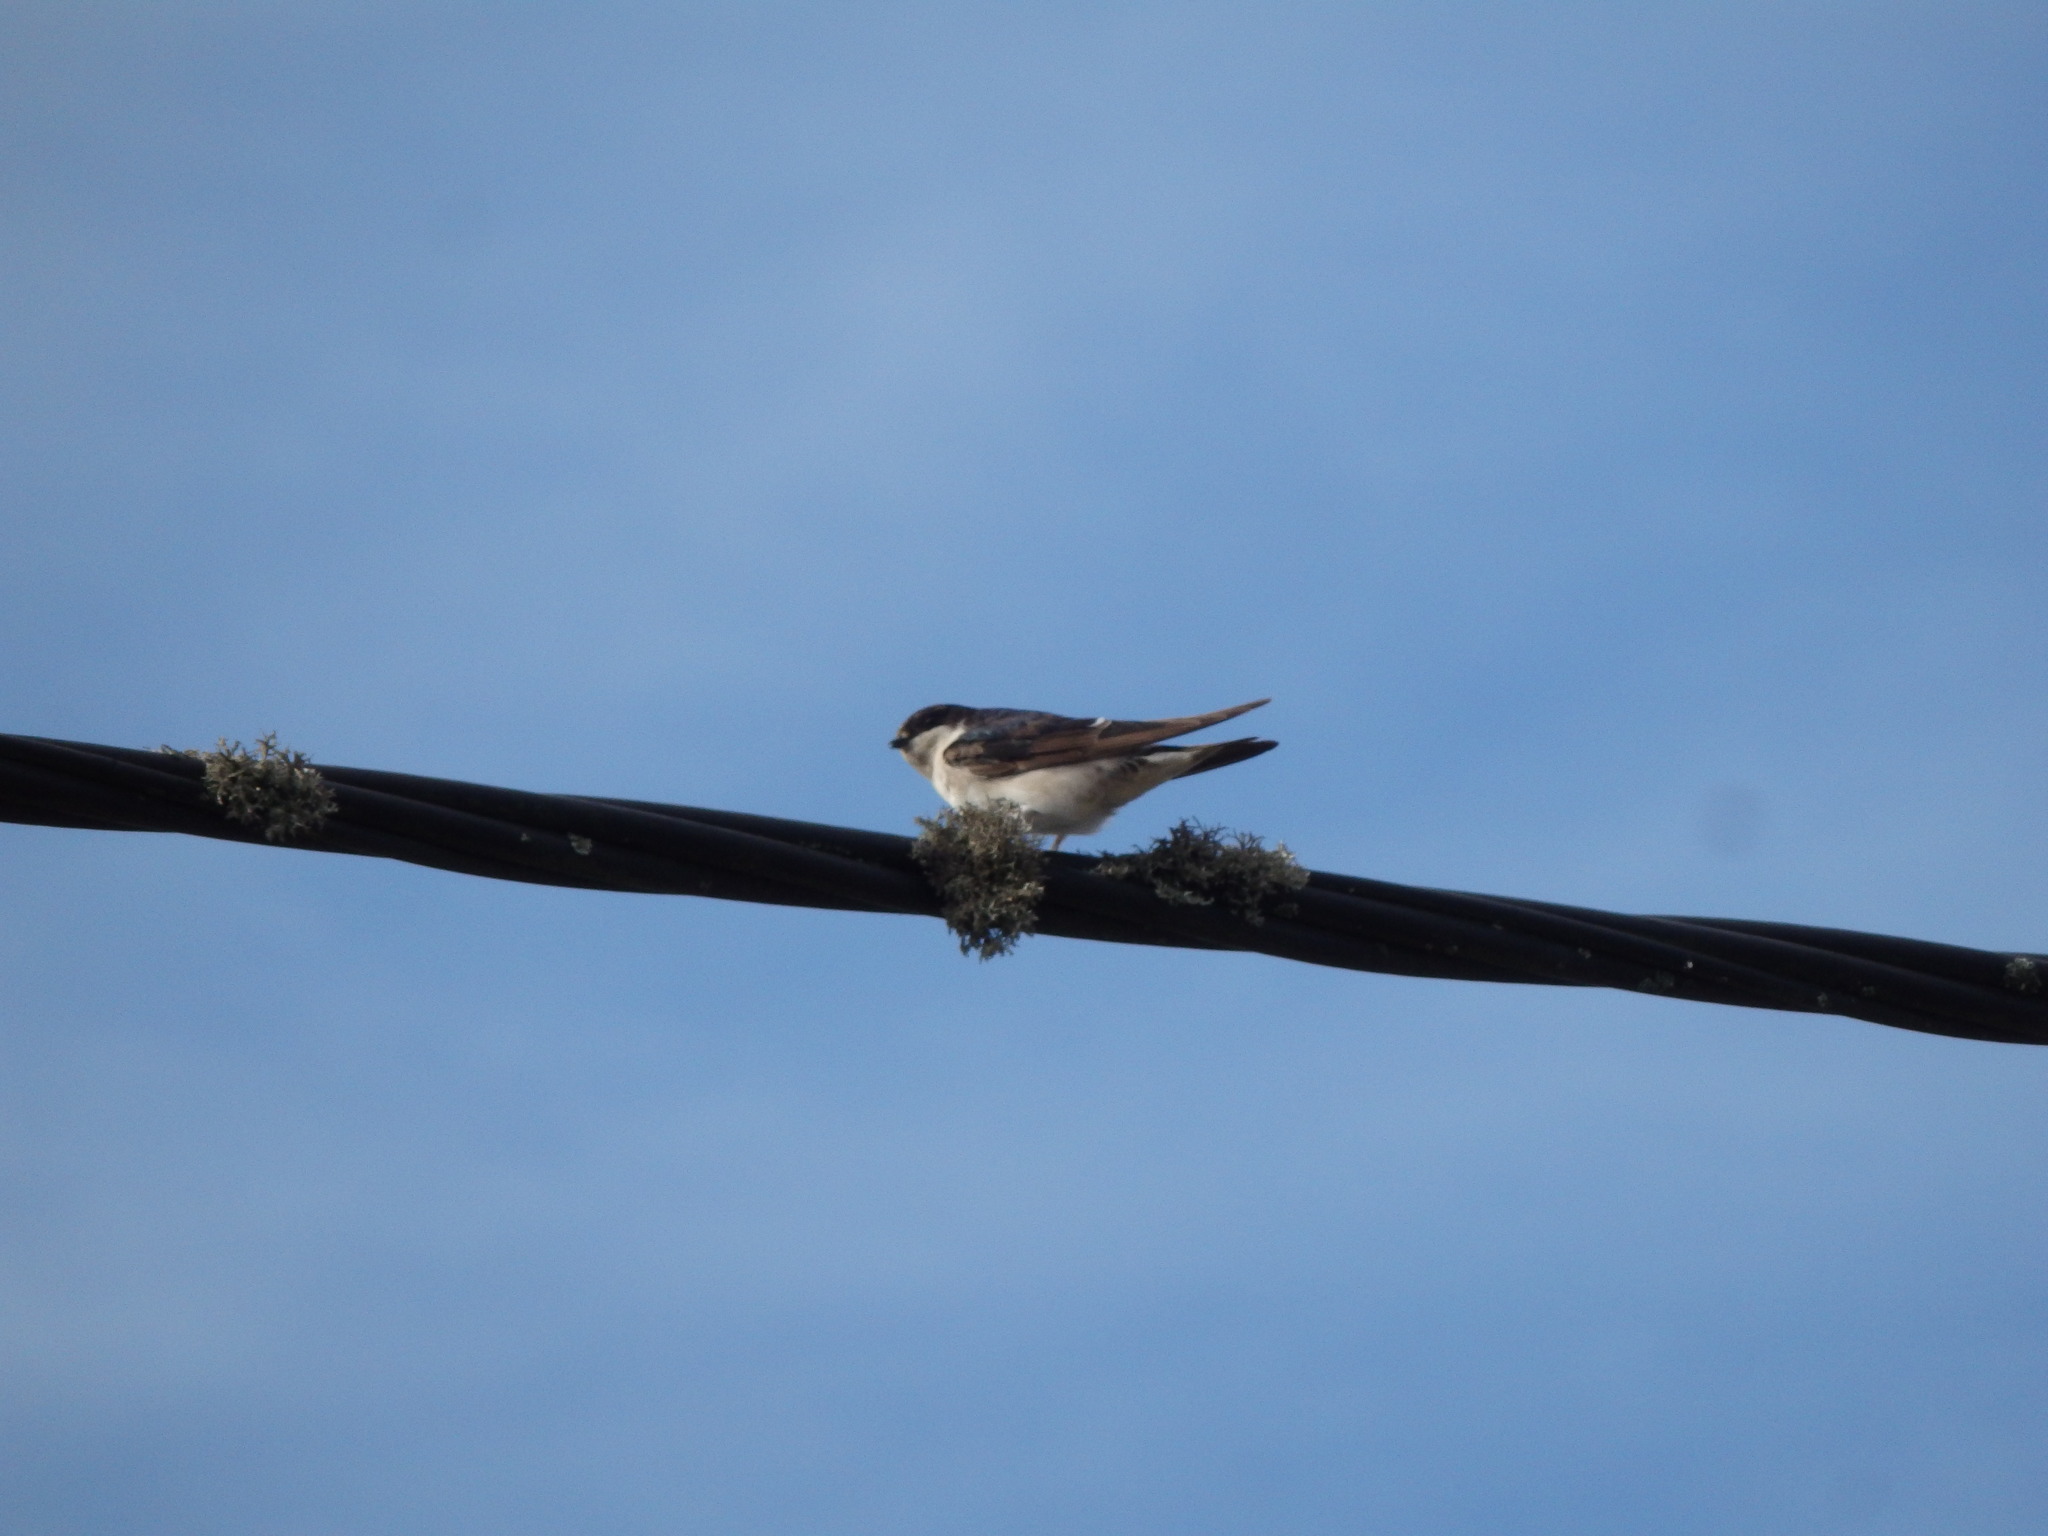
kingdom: Animalia
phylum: Chordata
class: Aves
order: Passeriformes
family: Hirundinidae
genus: Delichon
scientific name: Delichon urbicum
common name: Common house martin
